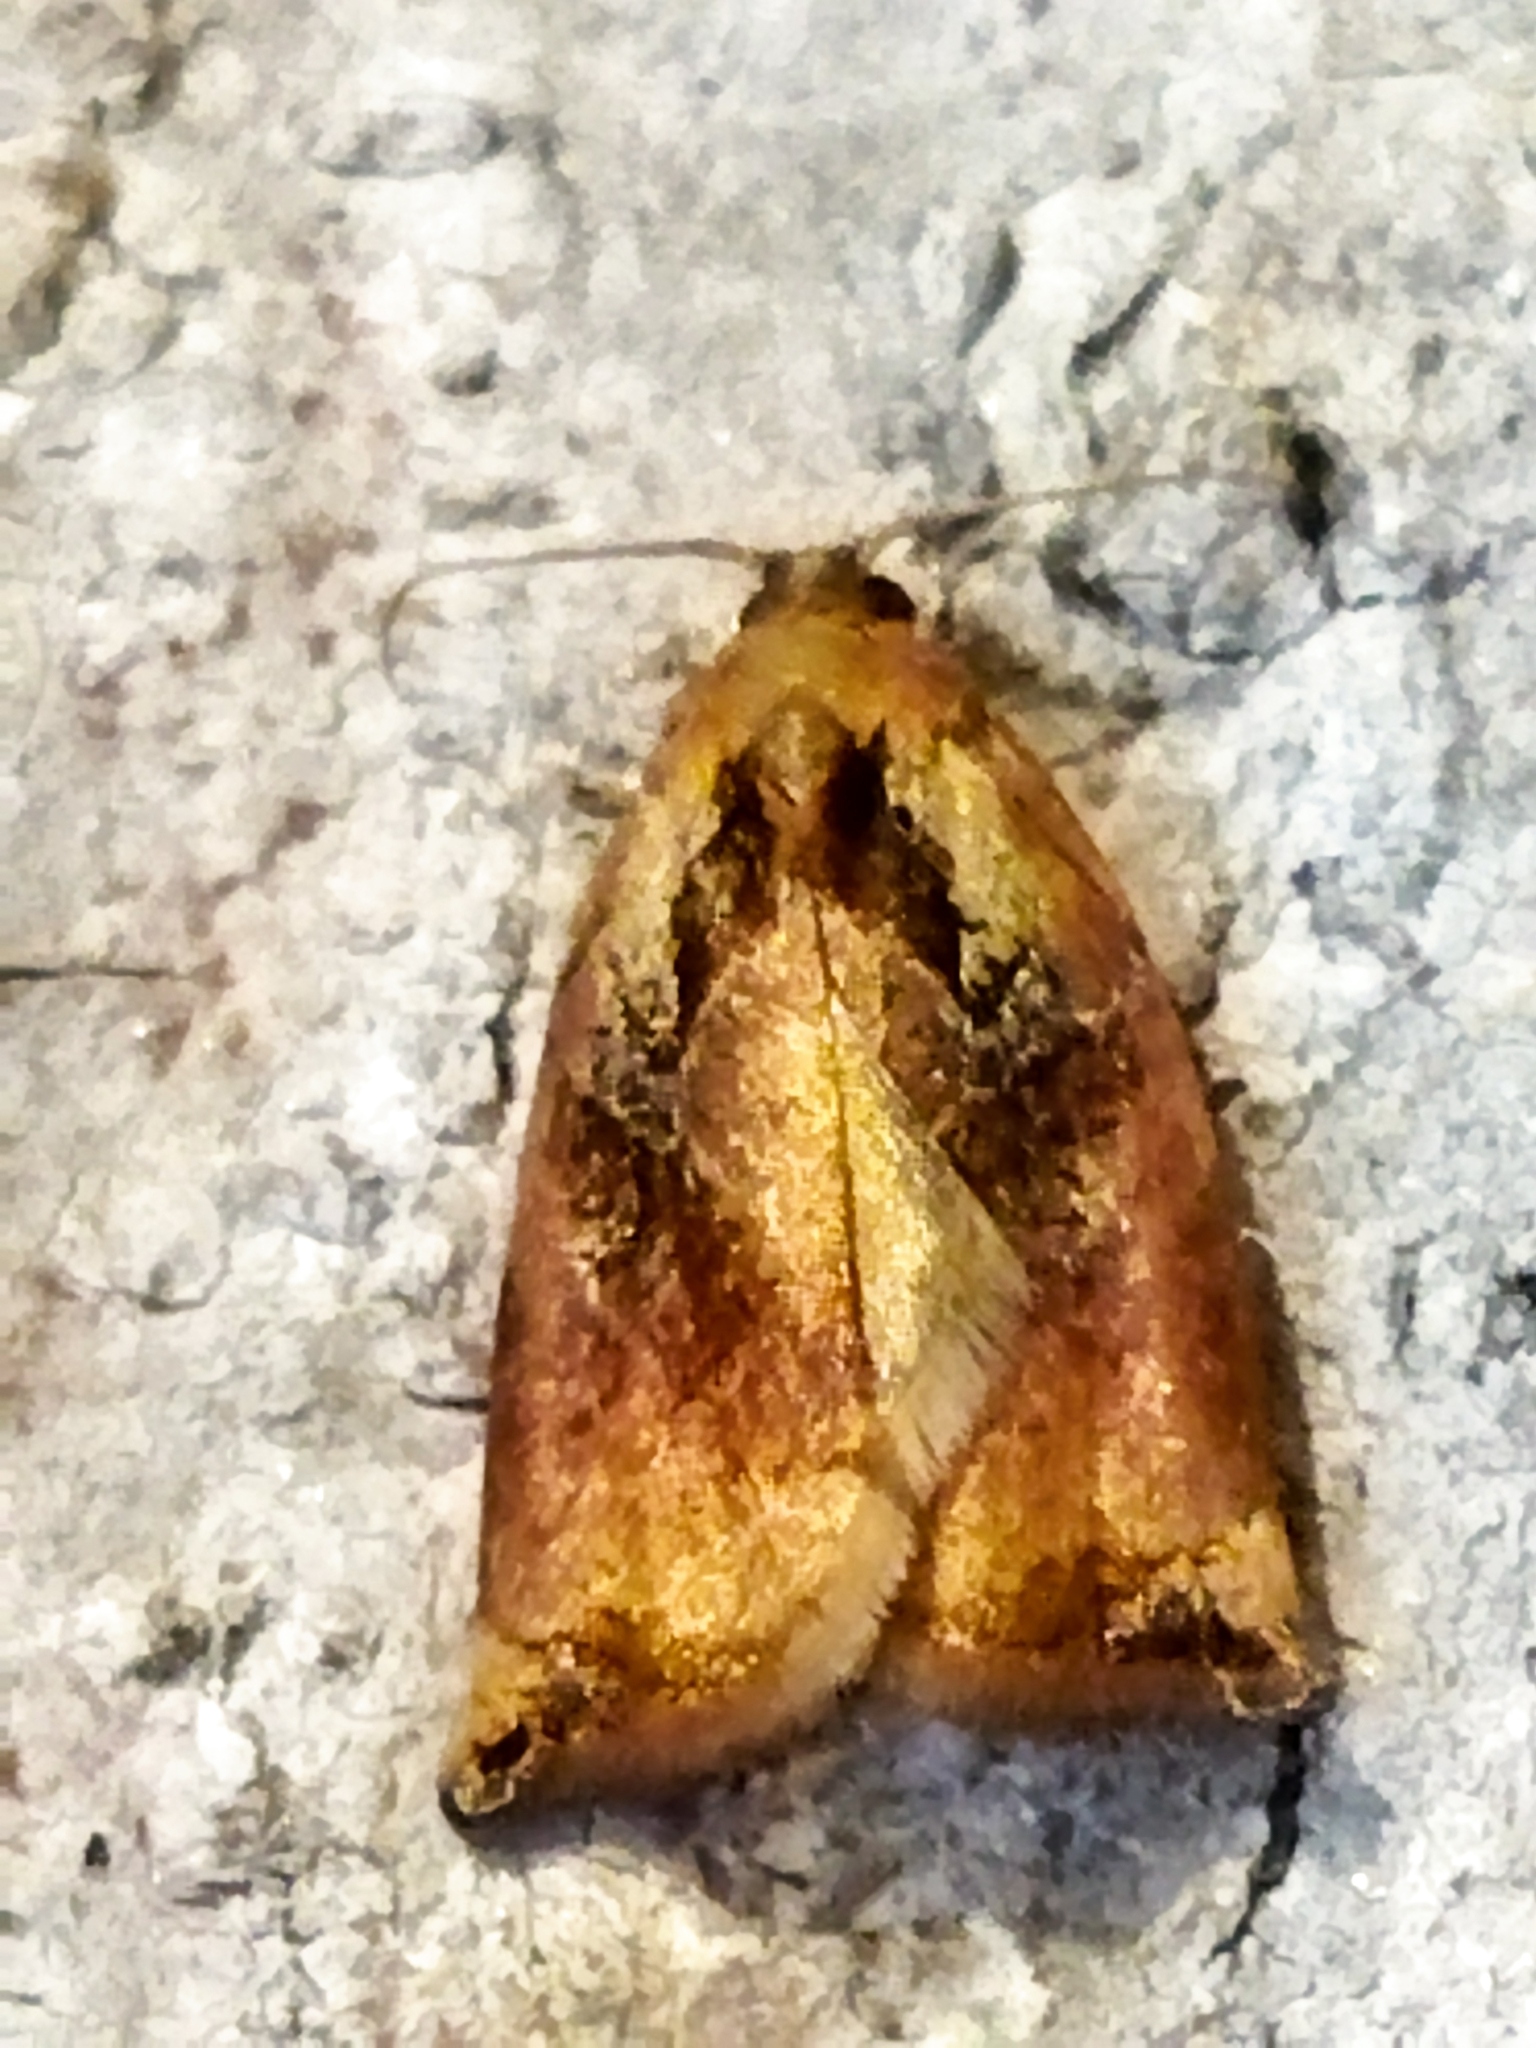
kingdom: Animalia
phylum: Arthropoda
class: Insecta
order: Lepidoptera
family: Tortricidae
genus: Archips
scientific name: Archips podana
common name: Large fruit-tree tortrix
